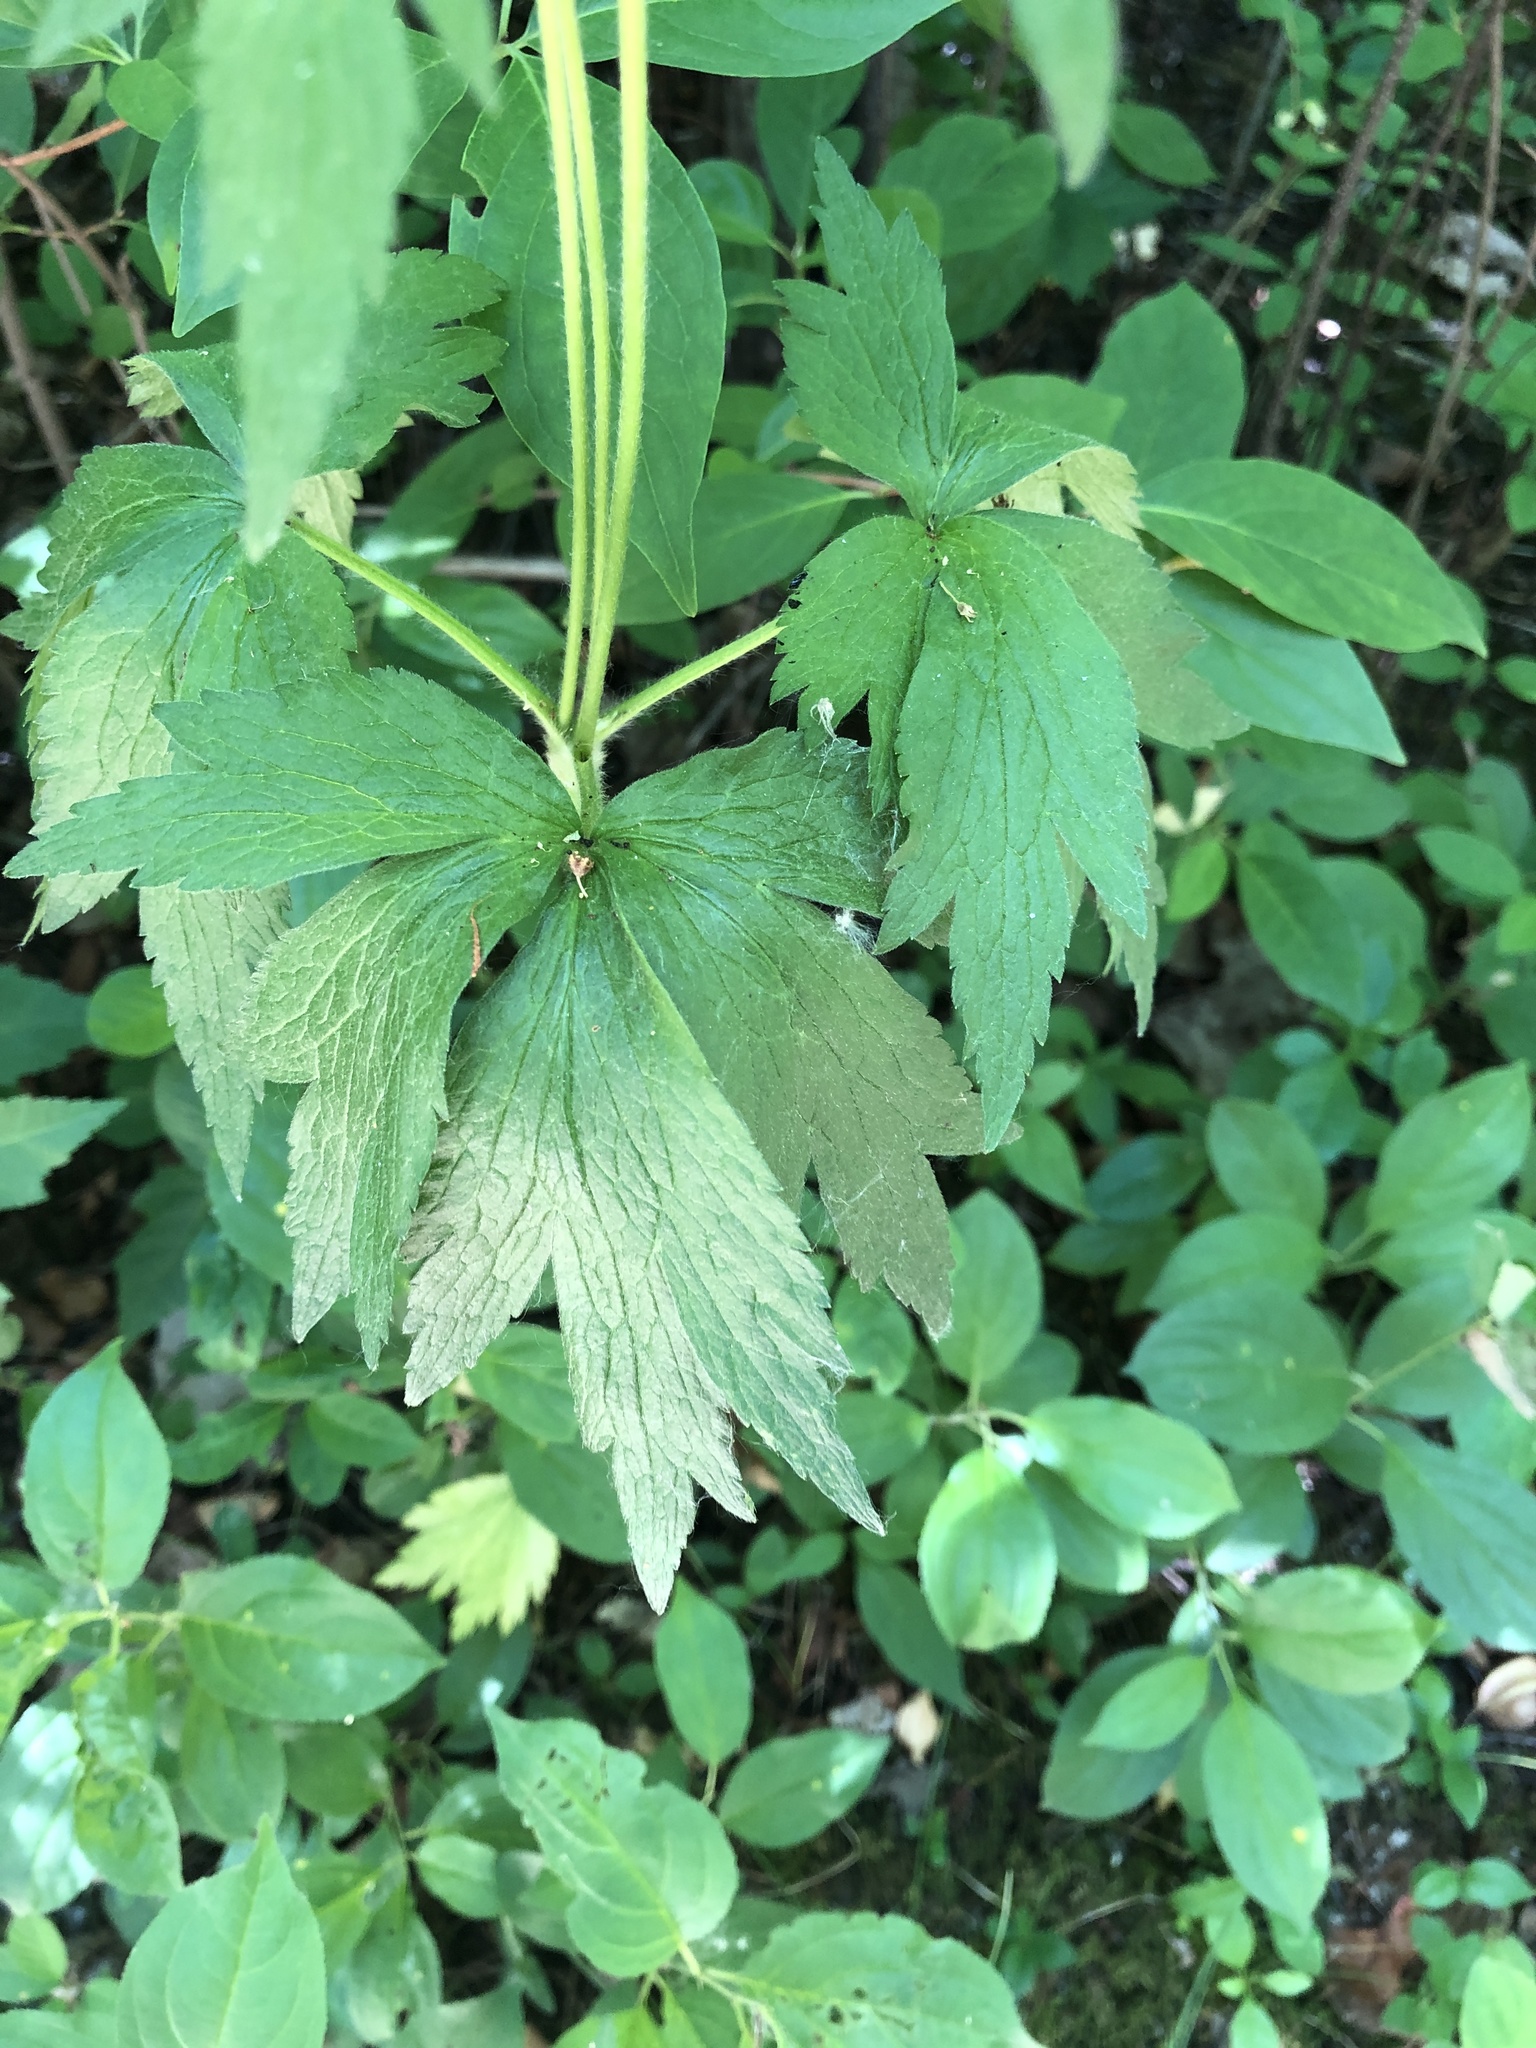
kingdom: Plantae
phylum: Tracheophyta
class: Magnoliopsida
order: Ranunculales
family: Ranunculaceae
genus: Anemone
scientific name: Anemone virginiana
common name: Tall anemone
